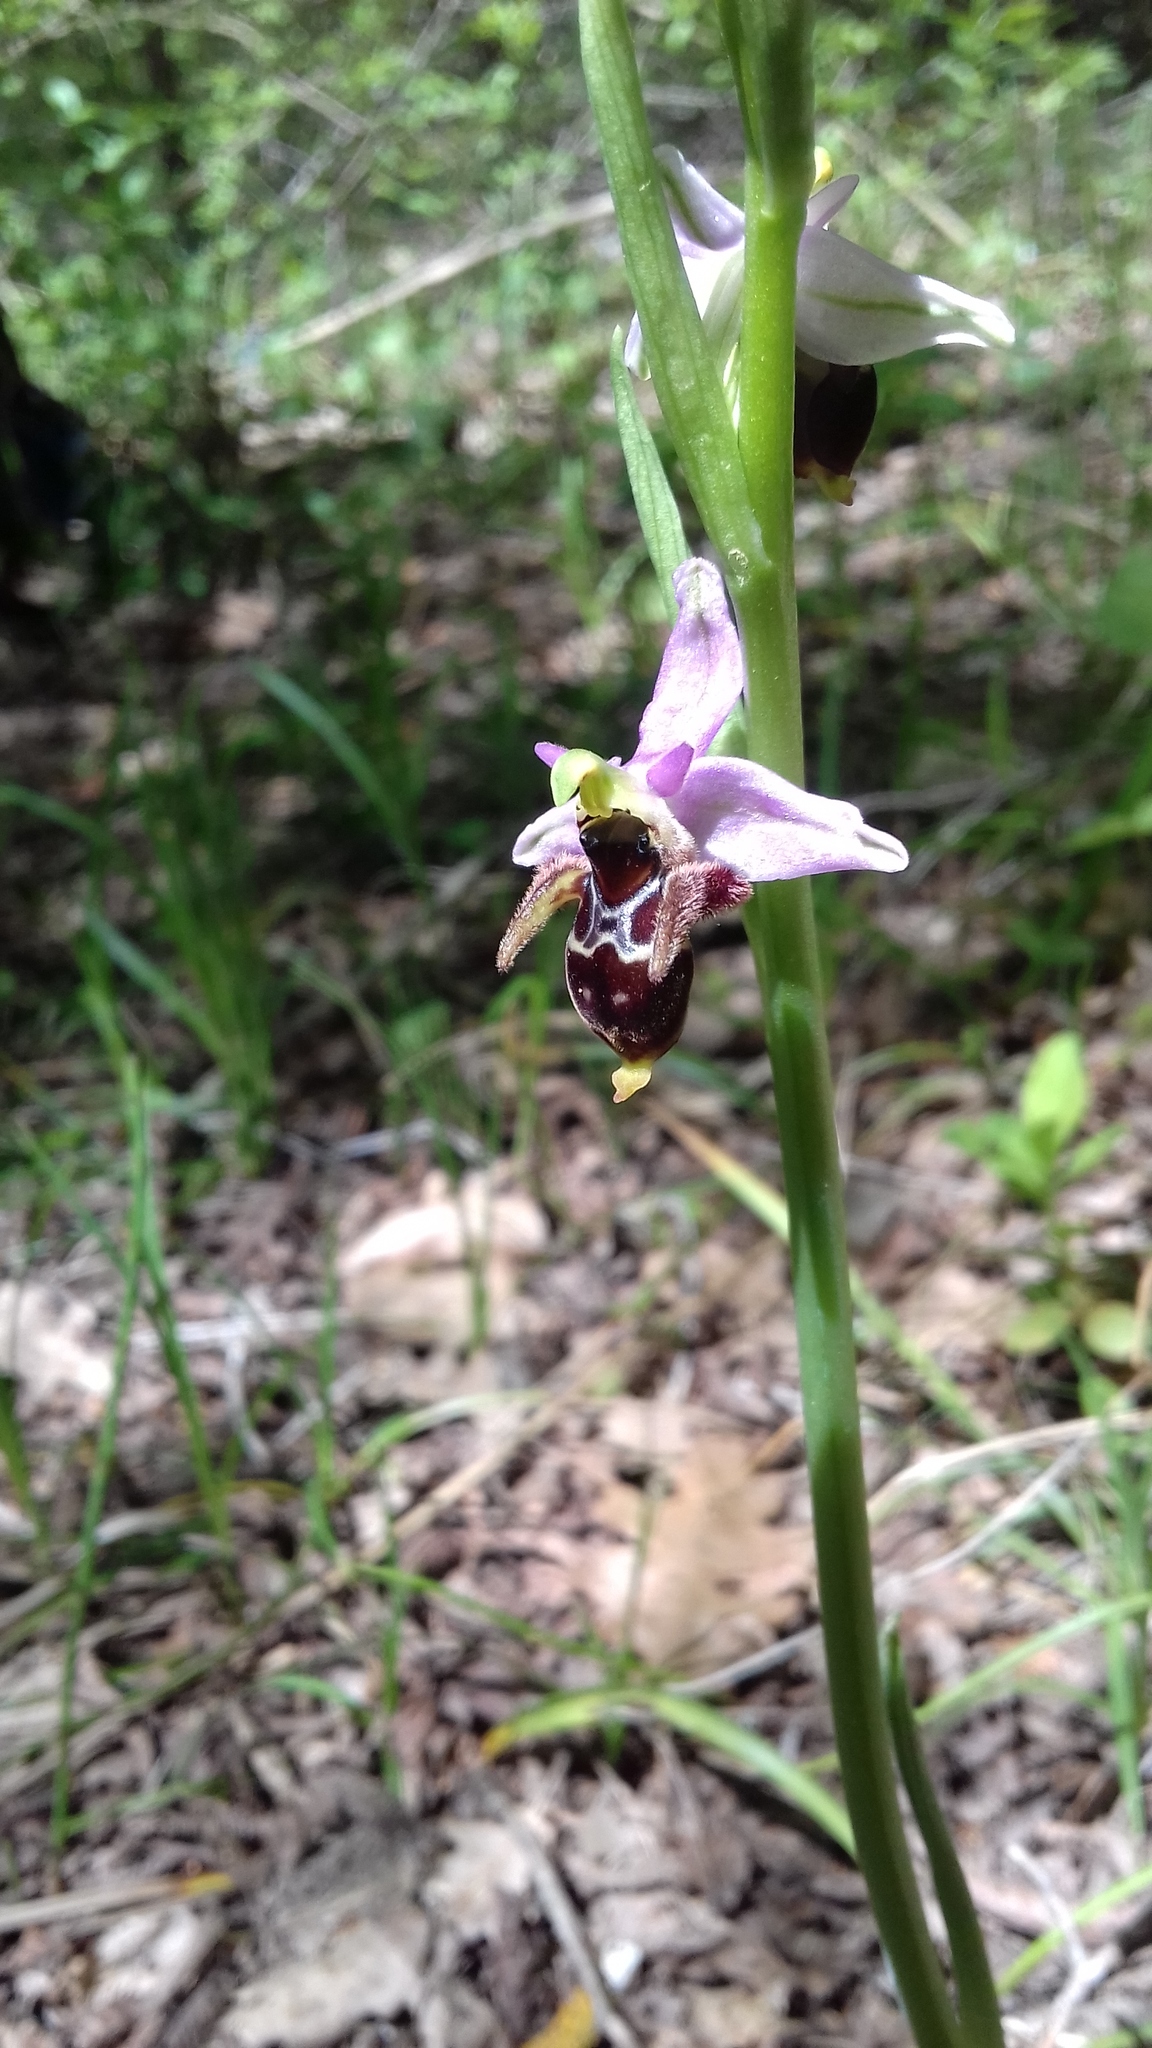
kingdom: Plantae
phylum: Tracheophyta
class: Liliopsida
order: Asparagales
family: Orchidaceae
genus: Ophrys
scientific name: Ophrys
